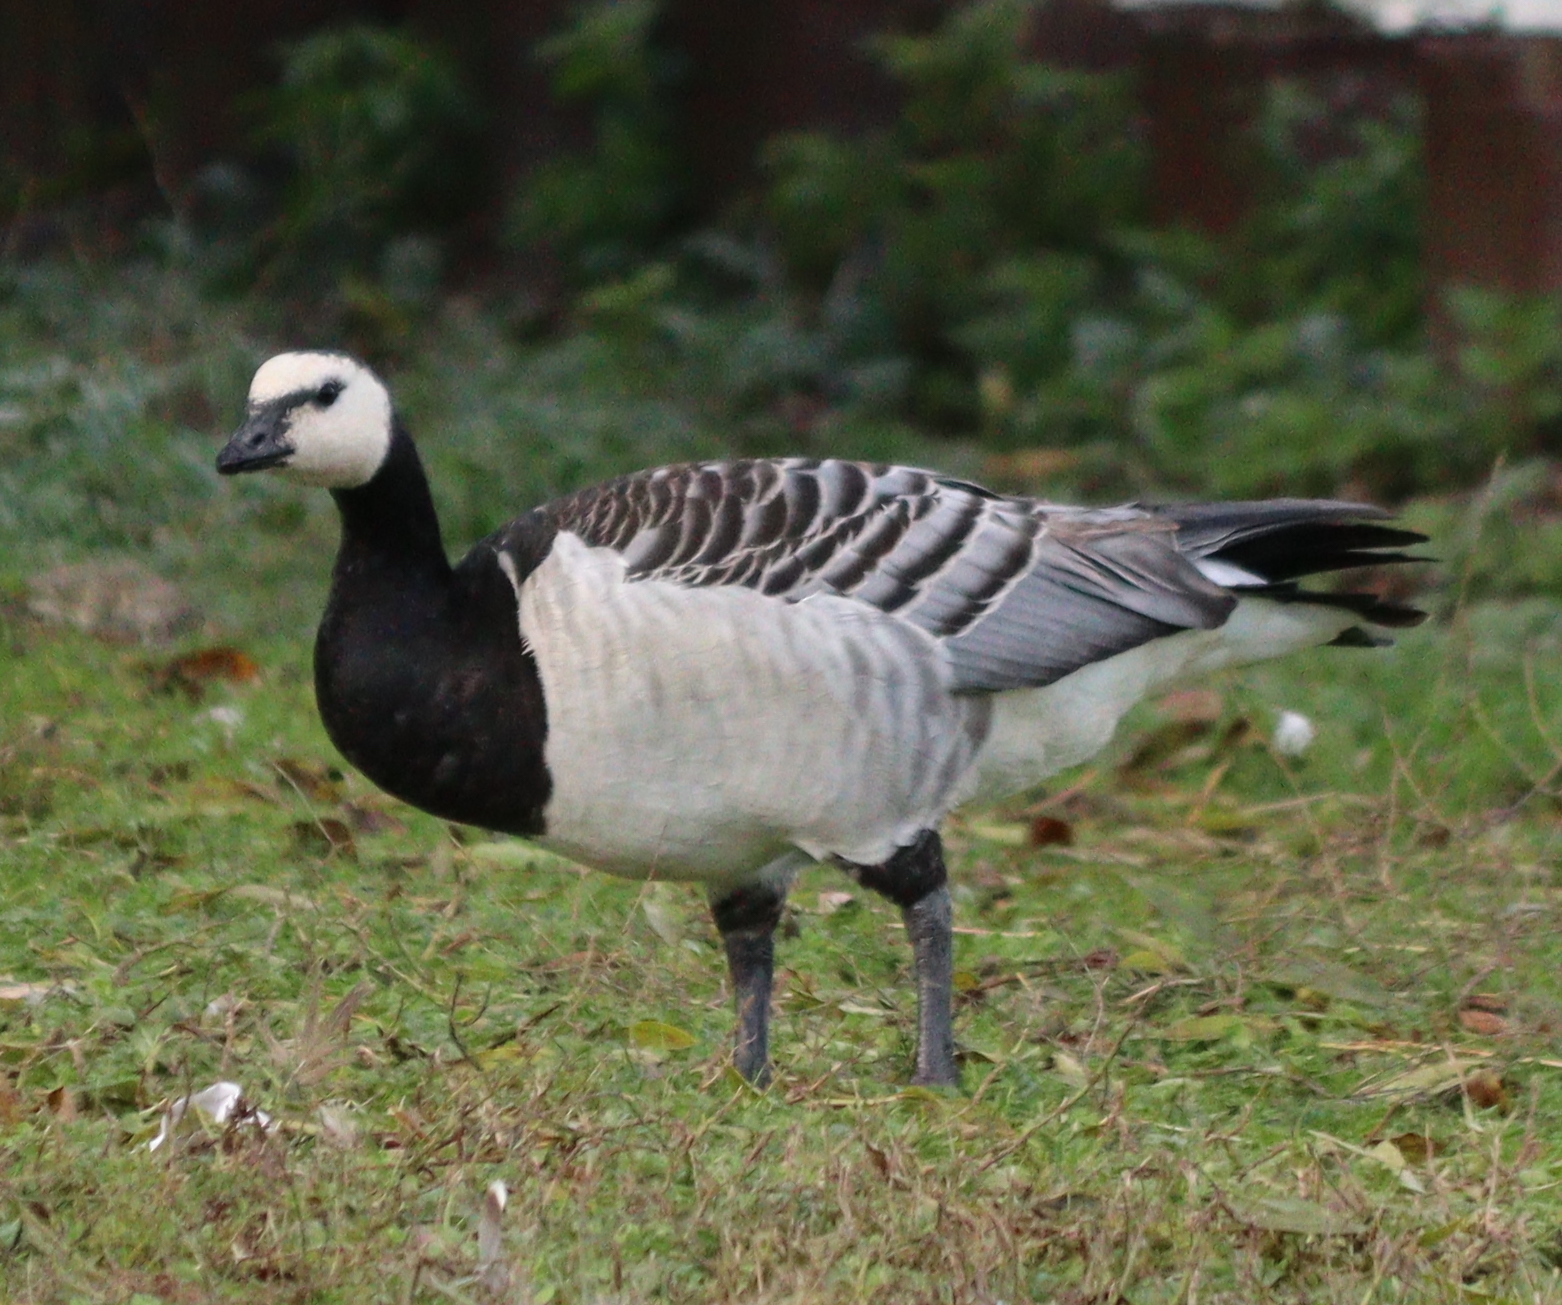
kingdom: Animalia
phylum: Chordata
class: Aves
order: Anseriformes
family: Anatidae
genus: Branta
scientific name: Branta leucopsis
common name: Barnacle goose
